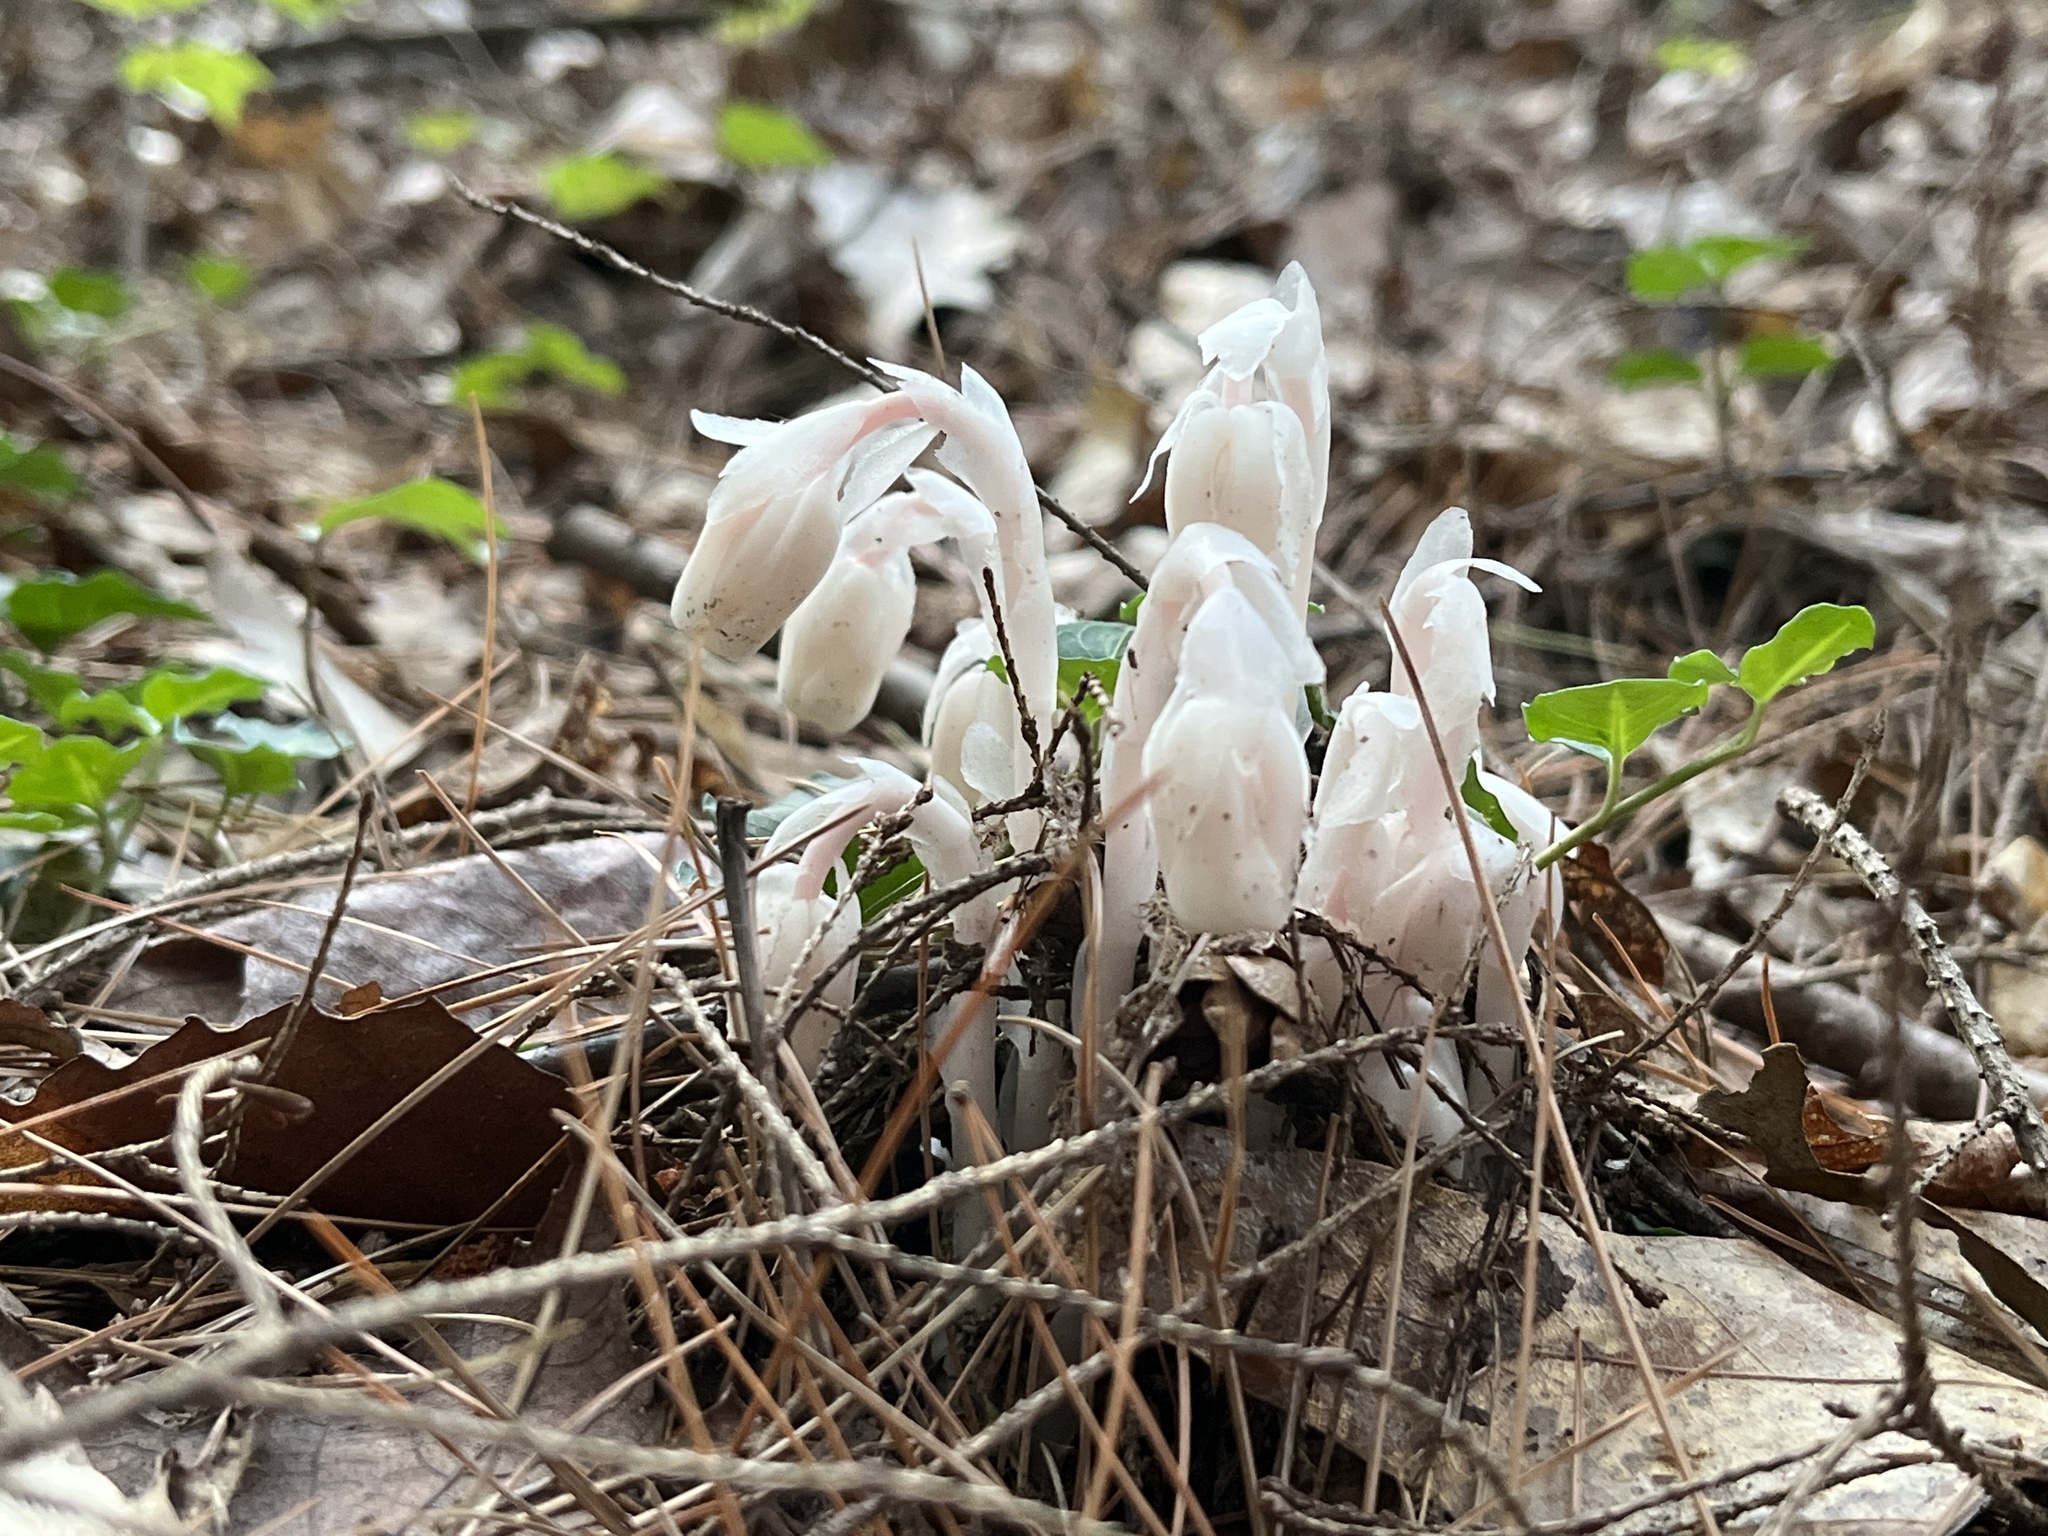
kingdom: Plantae
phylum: Tracheophyta
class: Magnoliopsida
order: Ericales
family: Ericaceae
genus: Monotropa
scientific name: Monotropa uniflora
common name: Convulsion root
